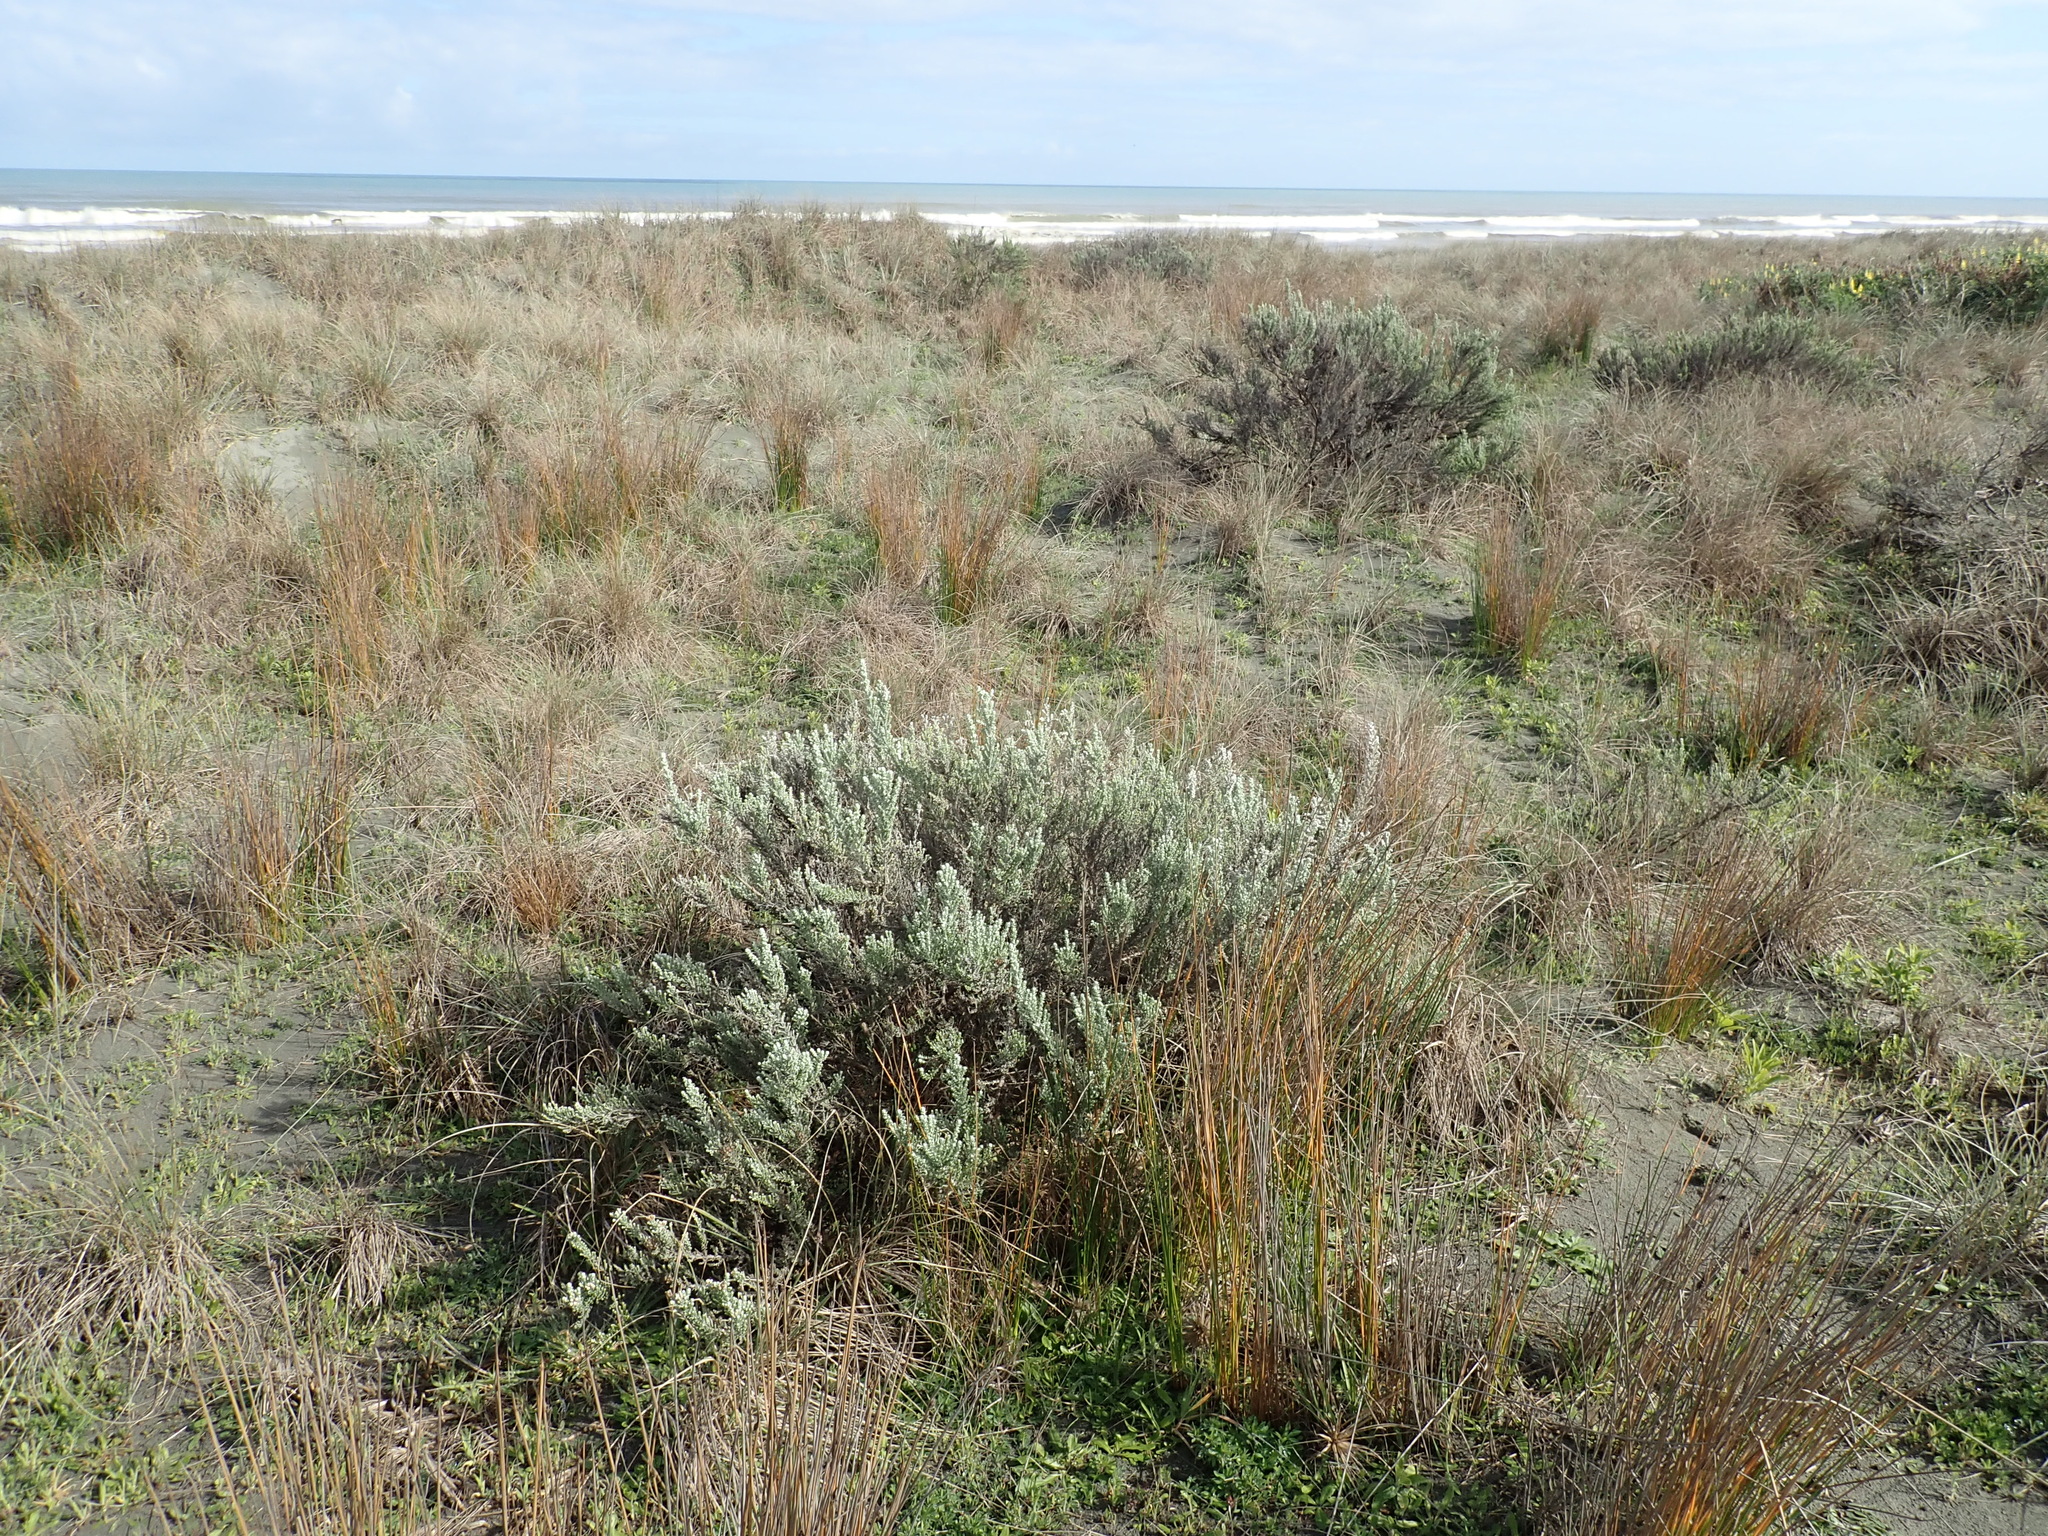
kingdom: Plantae
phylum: Tracheophyta
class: Magnoliopsida
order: Asterales
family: Asteraceae
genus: Ozothamnus
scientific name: Ozothamnus leptophyllus
